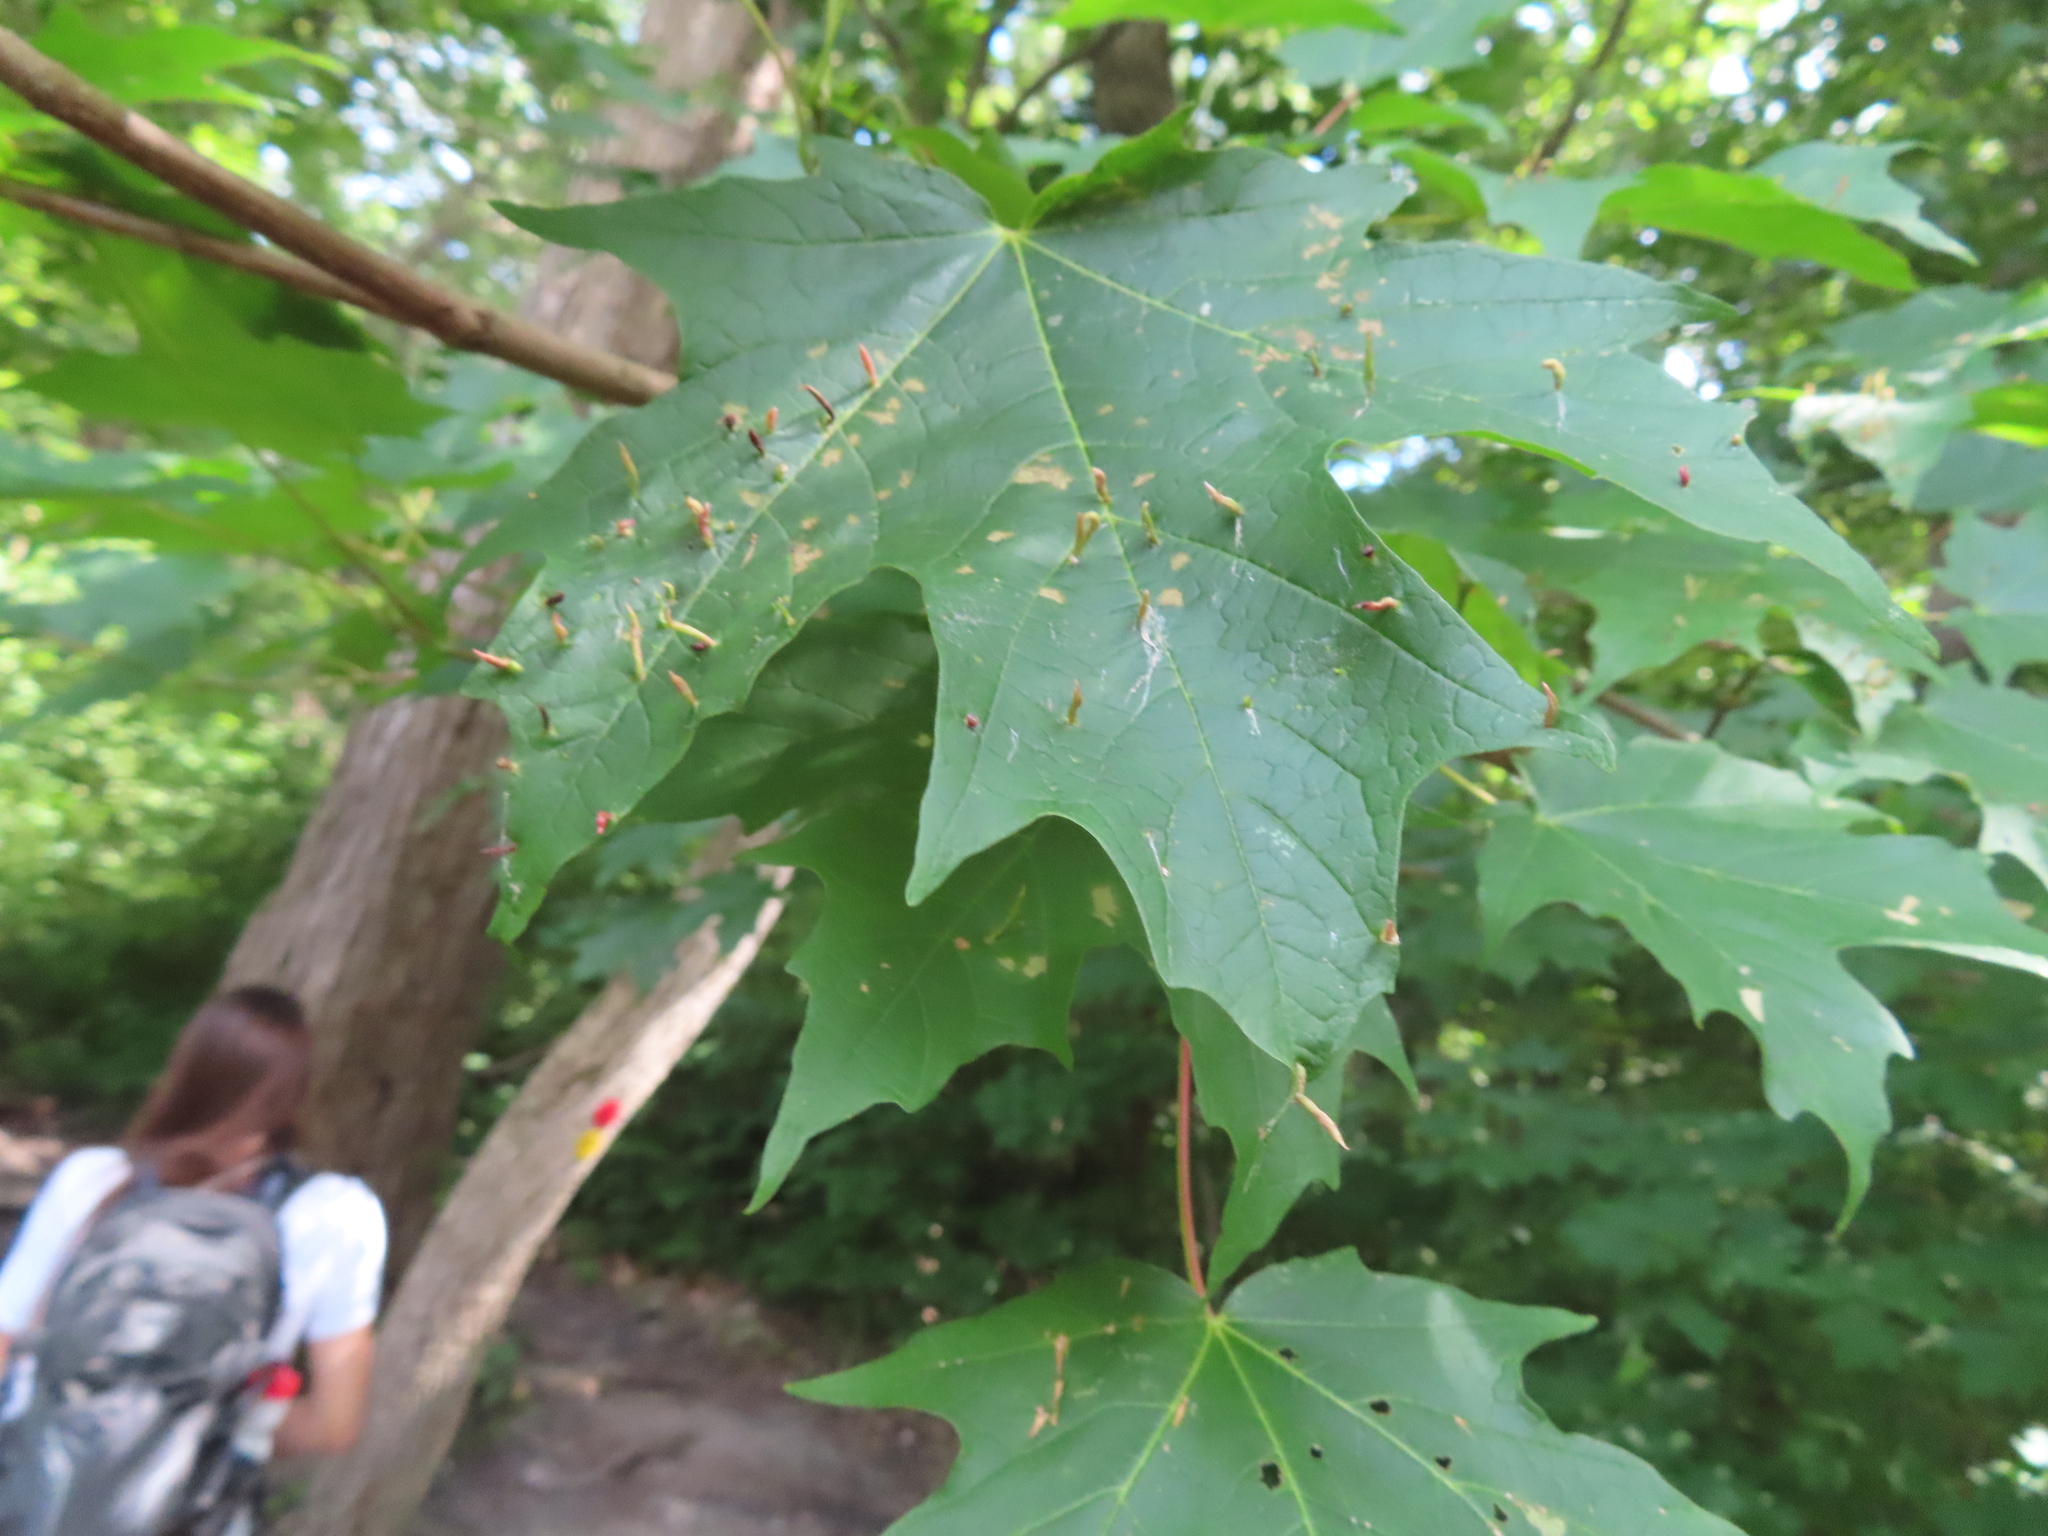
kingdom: Plantae
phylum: Tracheophyta
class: Magnoliopsida
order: Sapindales
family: Sapindaceae
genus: Acer
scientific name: Acer saccharum
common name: Sugar maple
